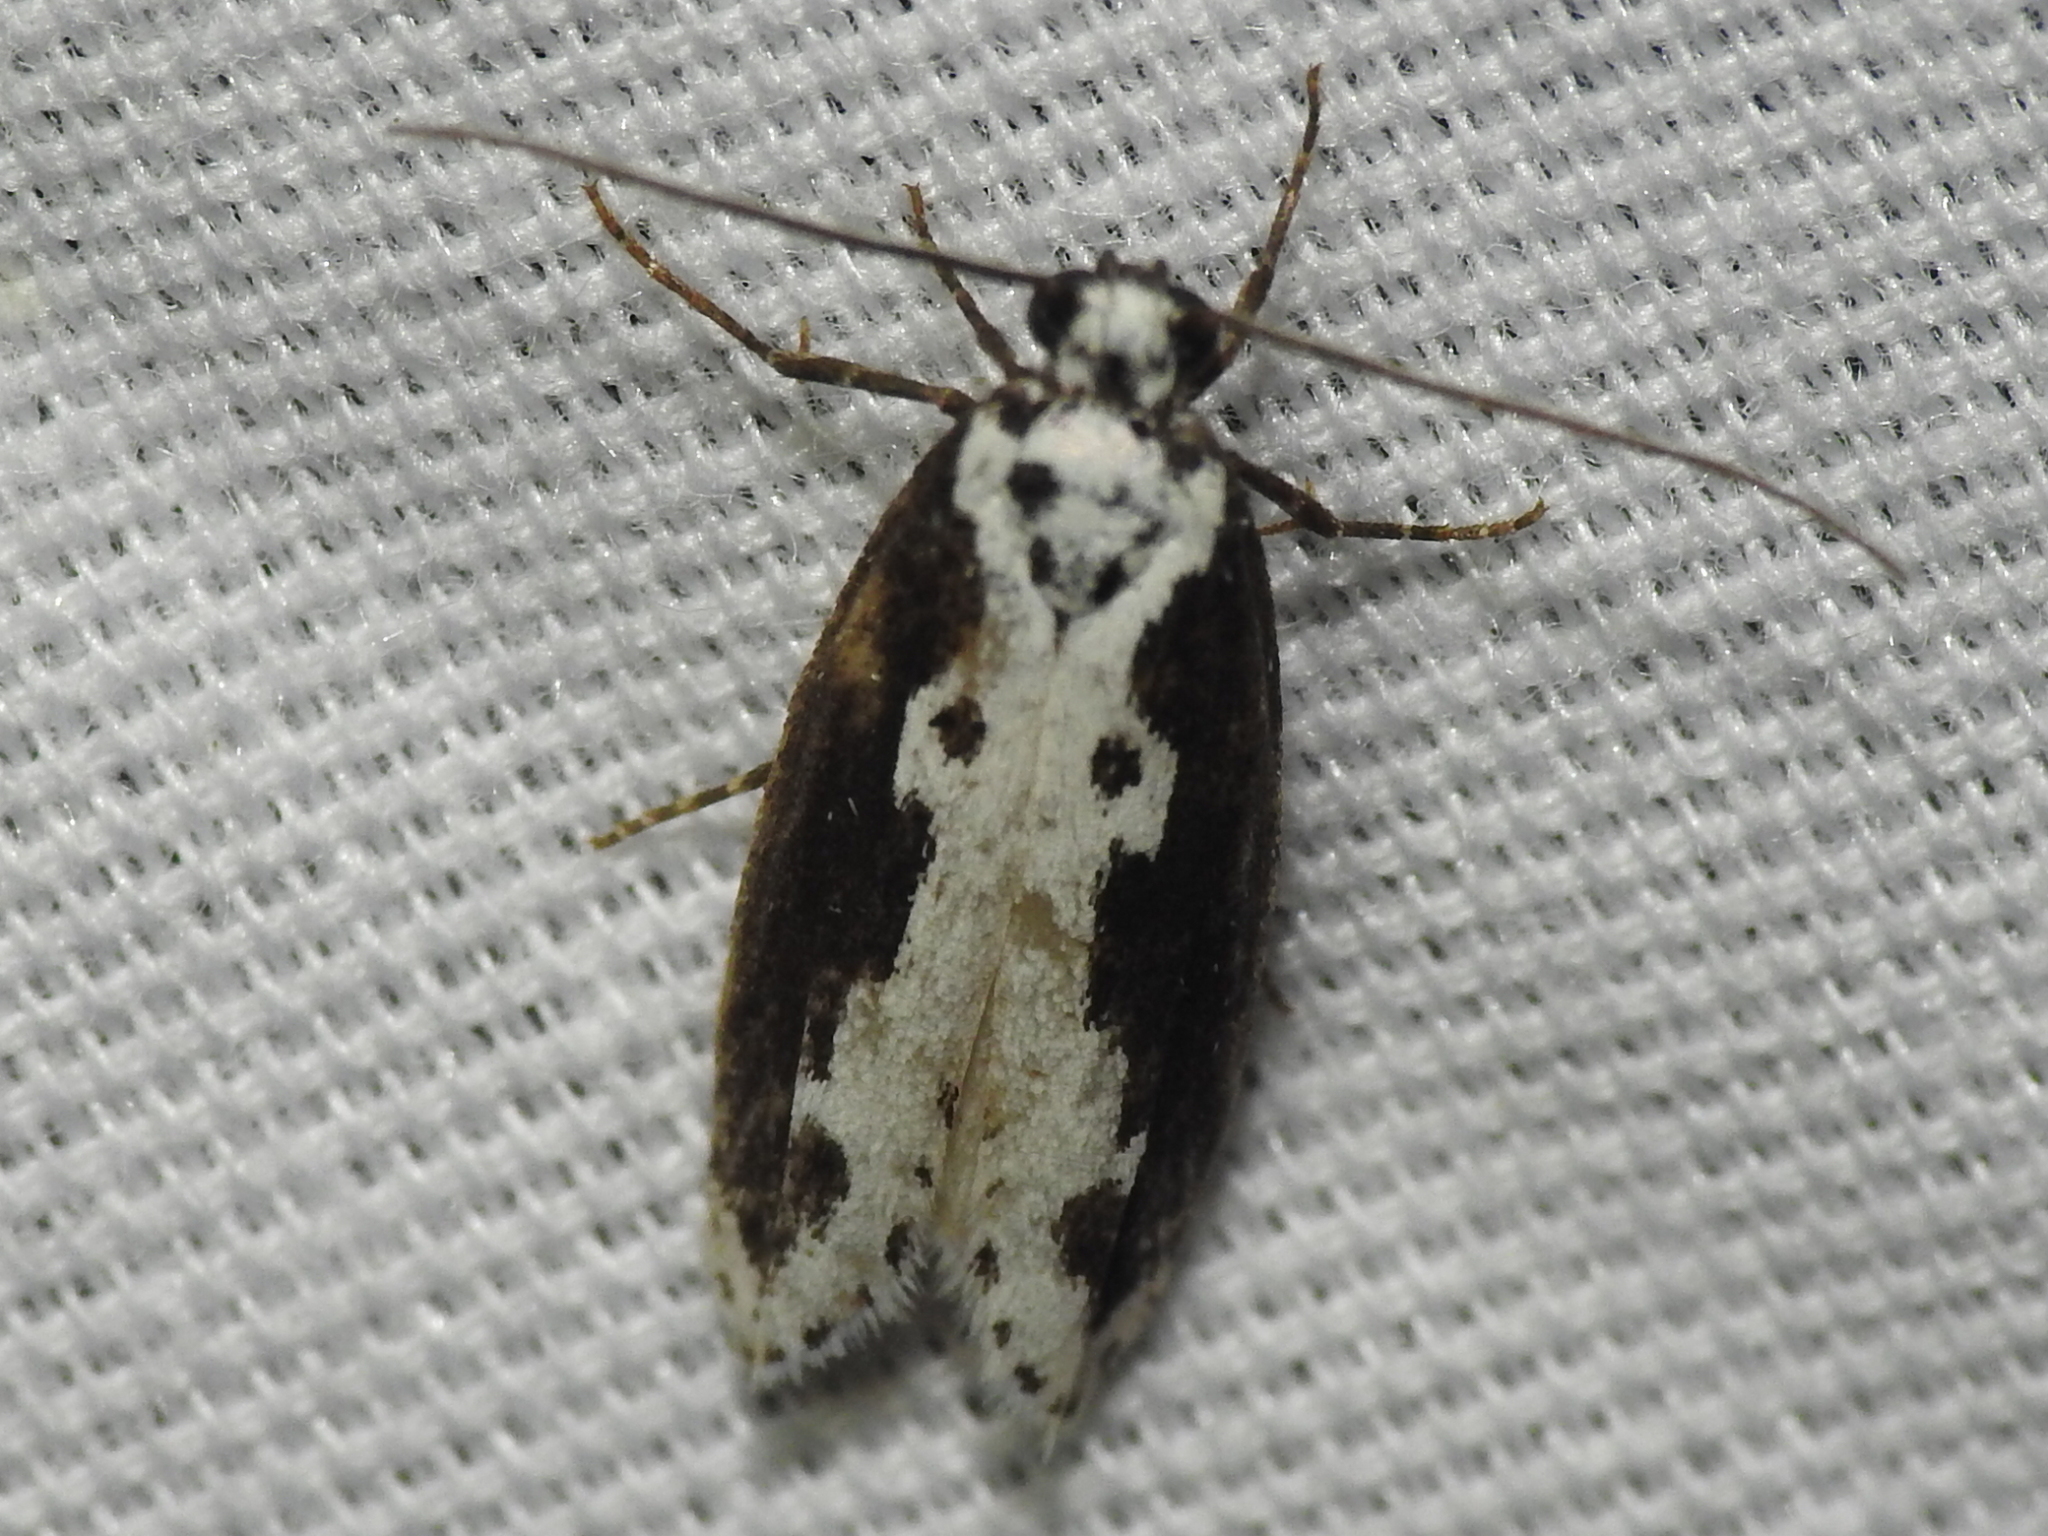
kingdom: Animalia
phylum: Arthropoda
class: Insecta
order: Lepidoptera
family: Ethmiidae
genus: Ethmia
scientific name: Ethmia semilugens
